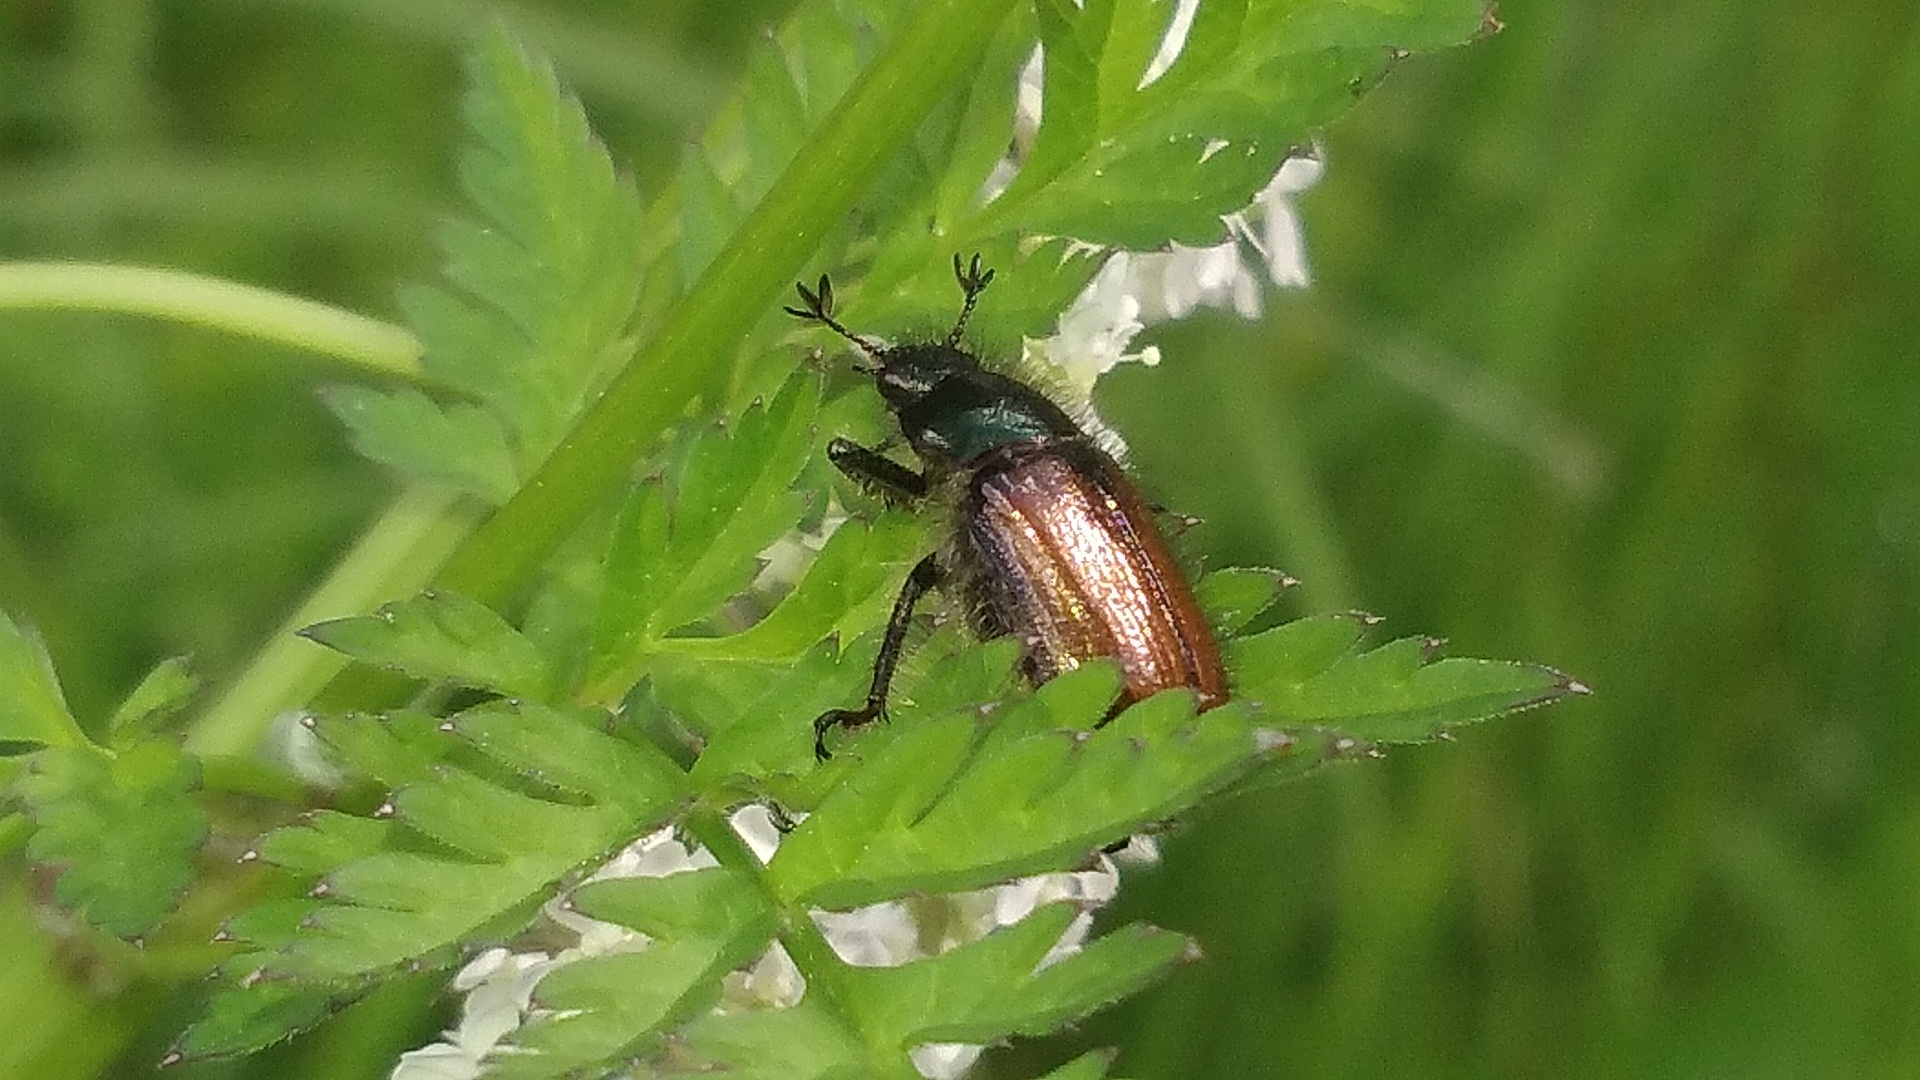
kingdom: Animalia
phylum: Arthropoda
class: Insecta
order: Coleoptera
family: Scarabaeidae
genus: Phyllopertha
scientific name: Phyllopertha horticola
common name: Garden chafer
